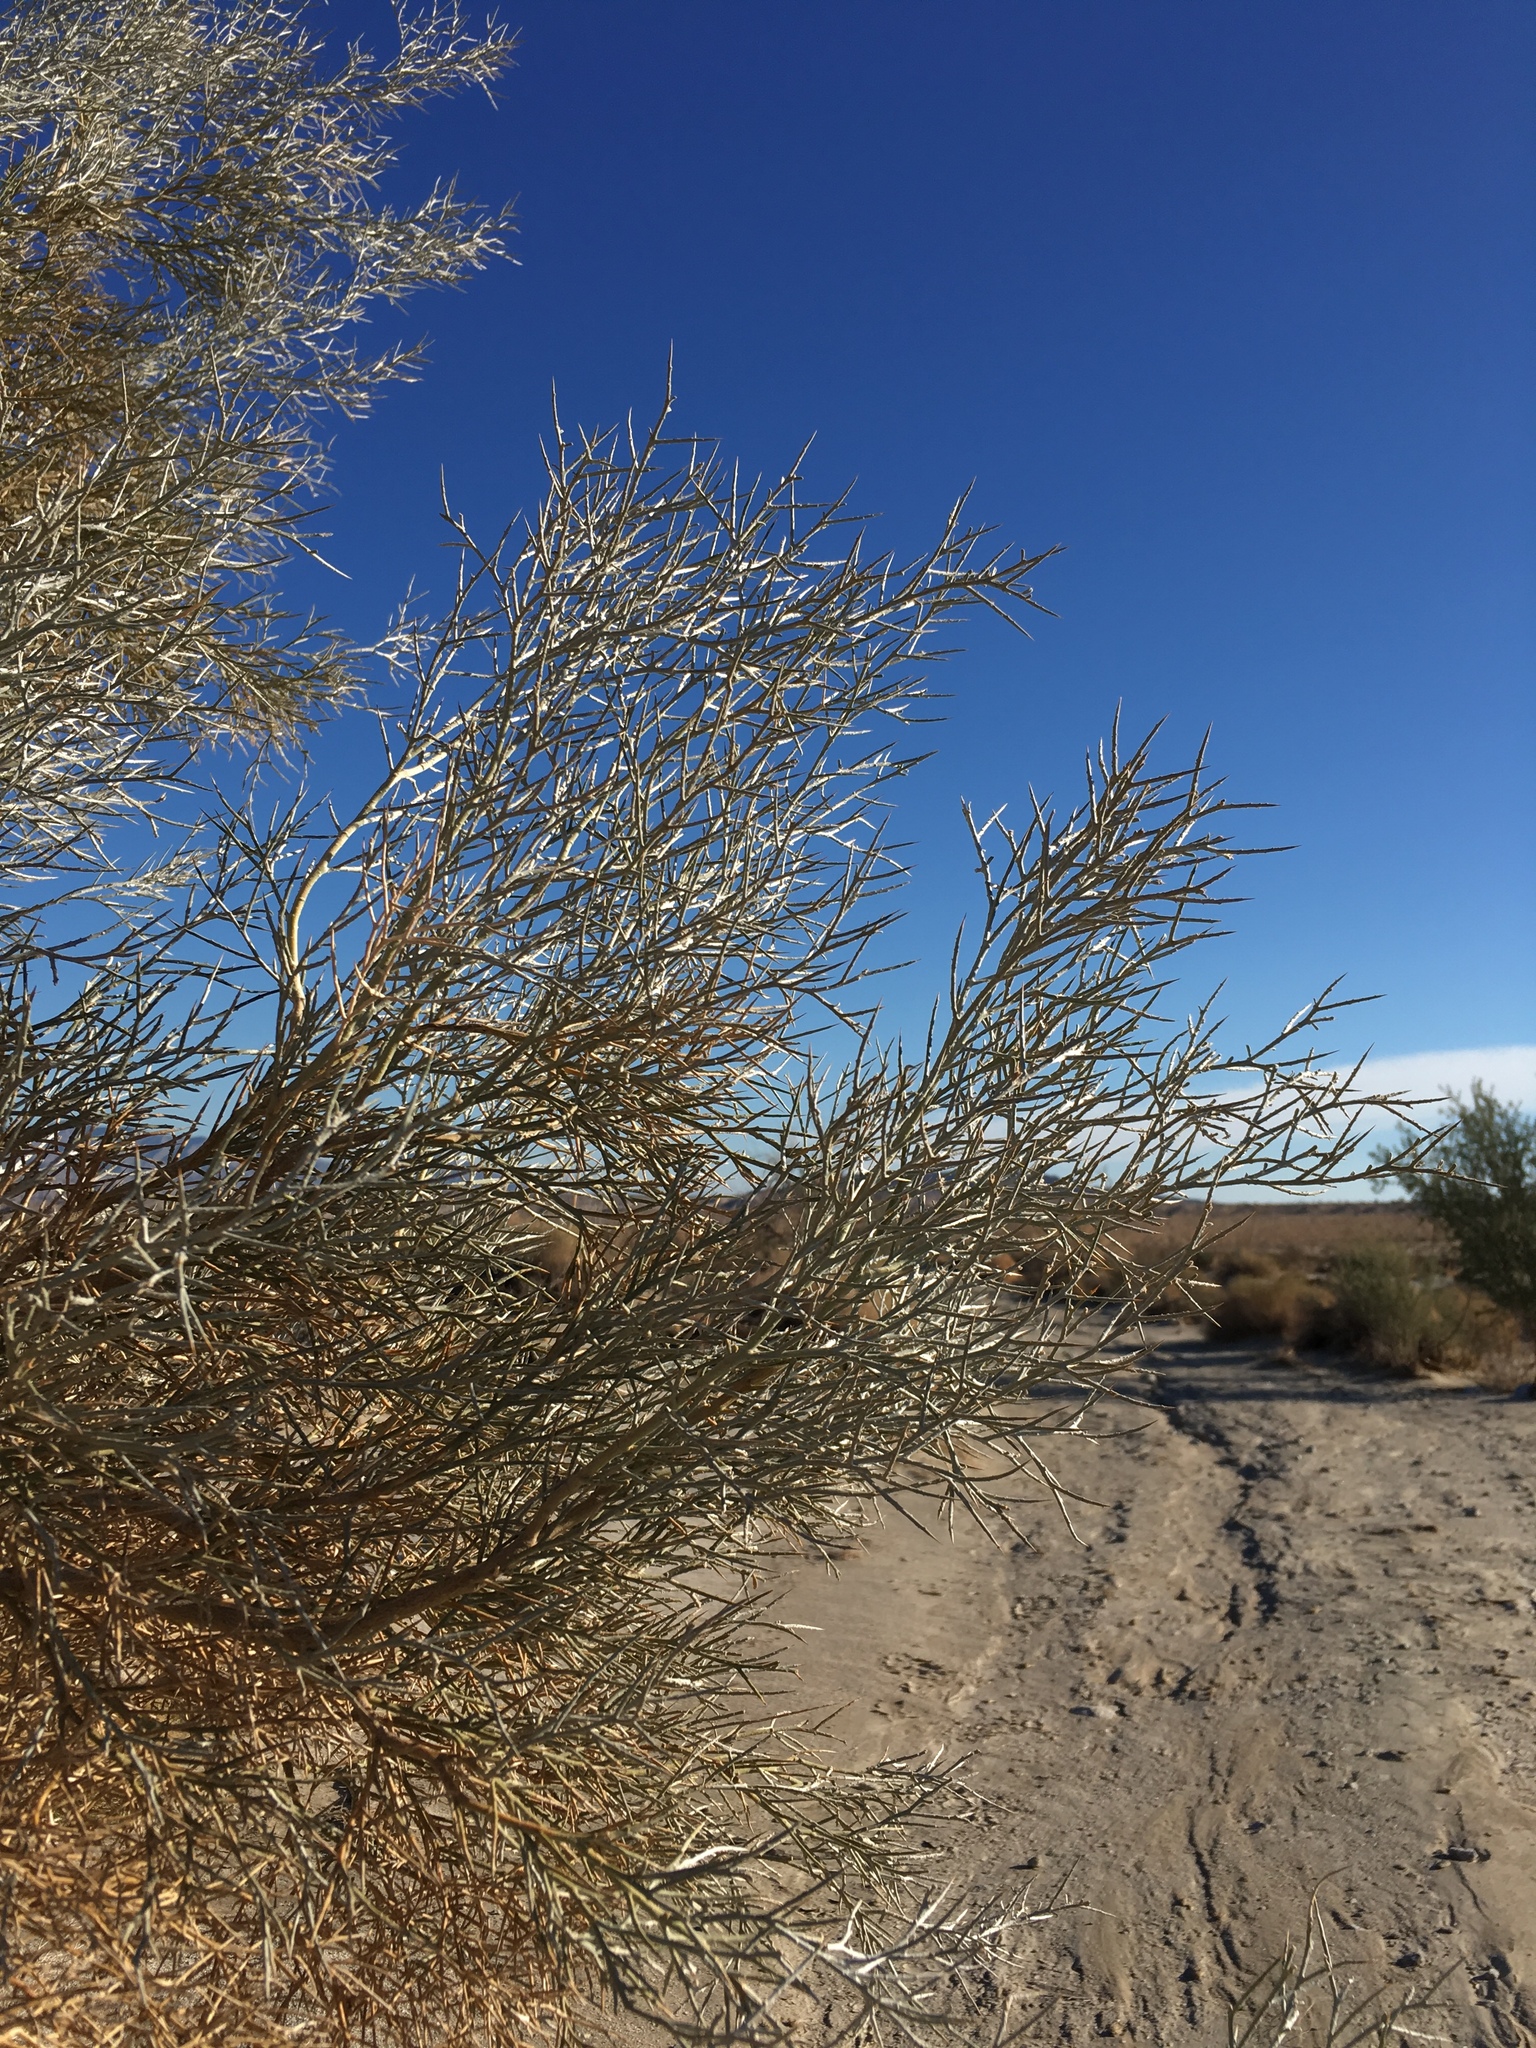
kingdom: Plantae
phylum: Tracheophyta
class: Magnoliopsida
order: Fabales
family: Fabaceae
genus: Psorothamnus
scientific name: Psorothamnus spinosus
